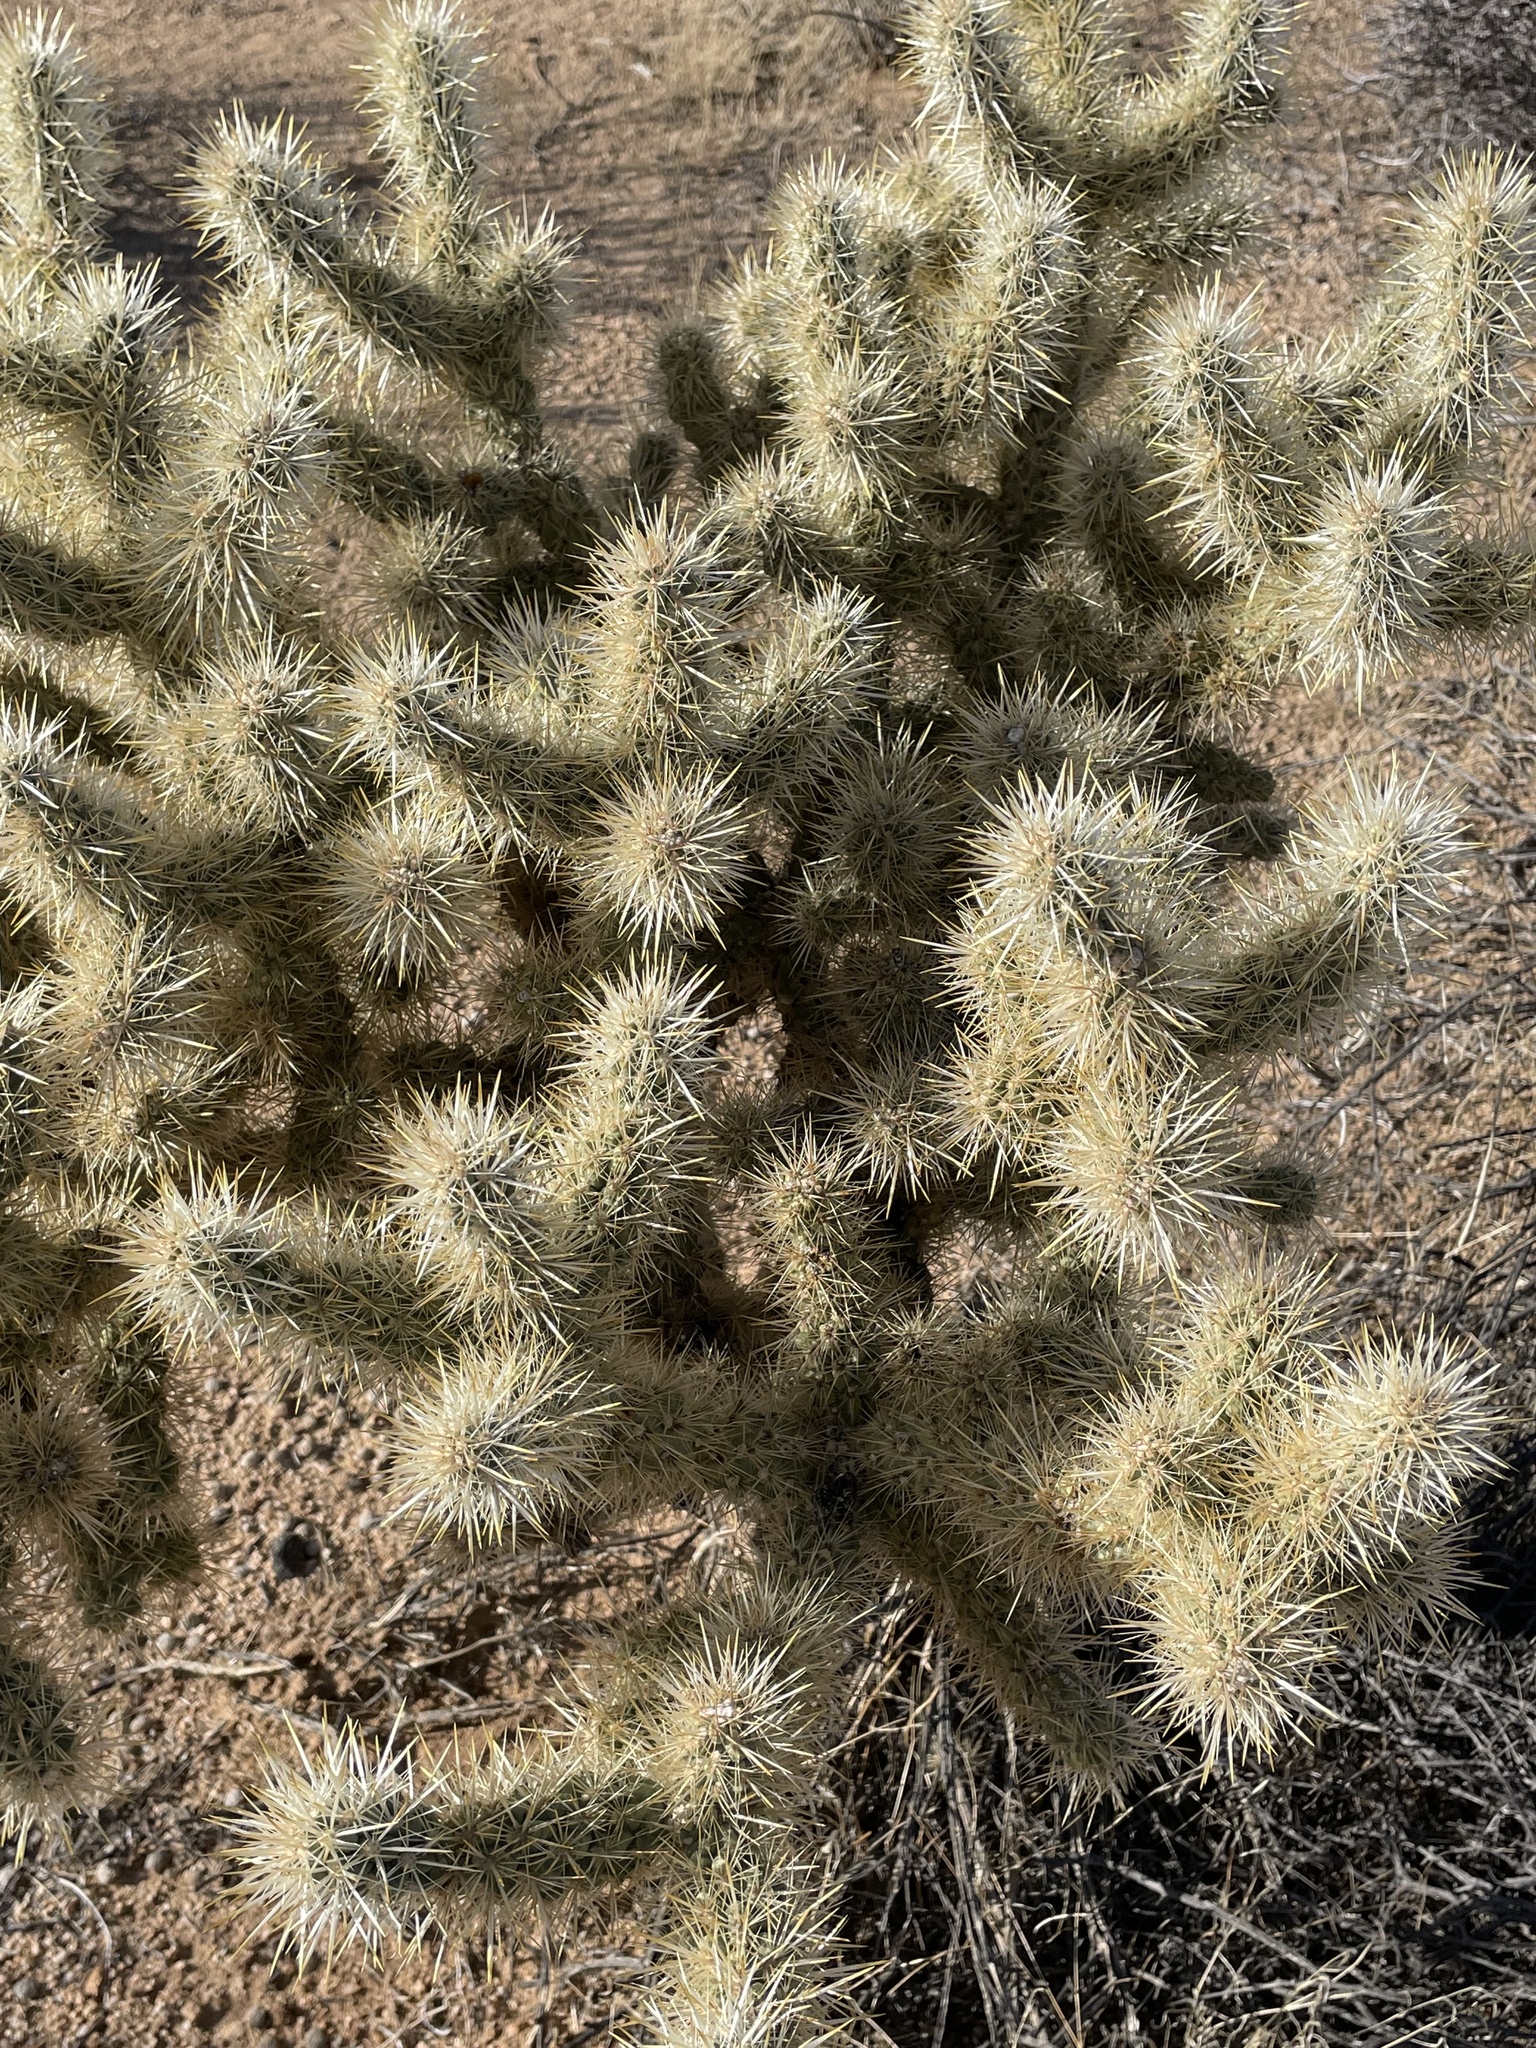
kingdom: Plantae
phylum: Tracheophyta
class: Magnoliopsida
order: Caryophyllales
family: Cactaceae
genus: Cylindropuntia
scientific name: Cylindropuntia echinocarpa
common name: Ground cholla
